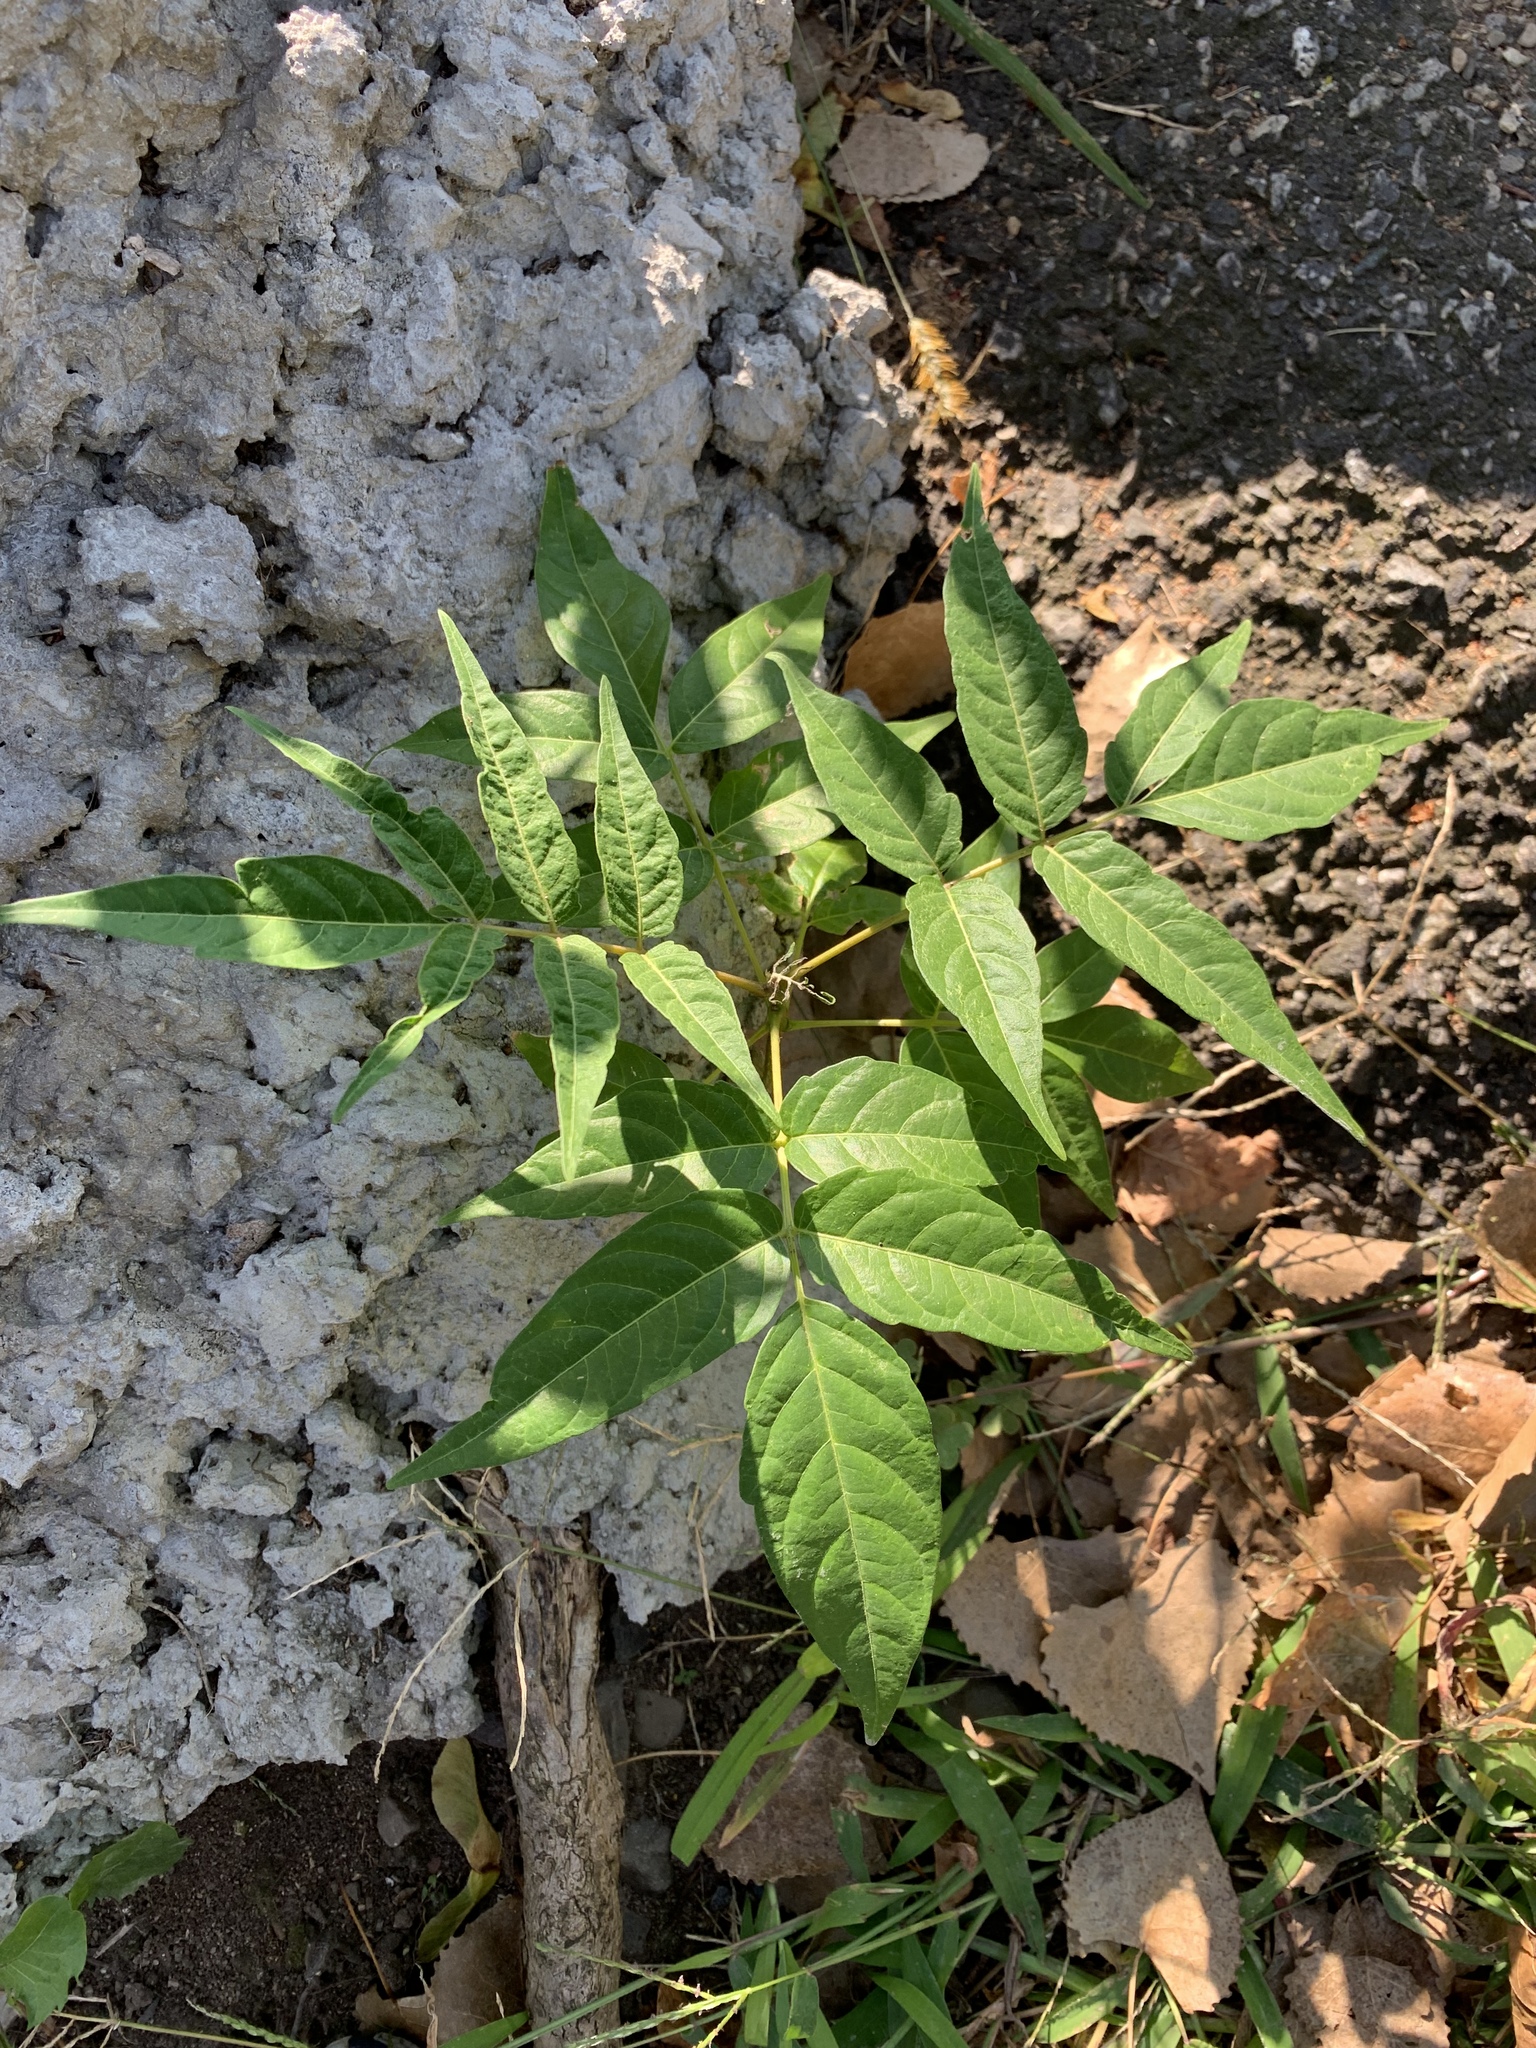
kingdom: Plantae
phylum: Tracheophyta
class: Magnoliopsida
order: Sapindales
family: Simaroubaceae
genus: Ailanthus
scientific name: Ailanthus altissima
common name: Tree-of-heaven
